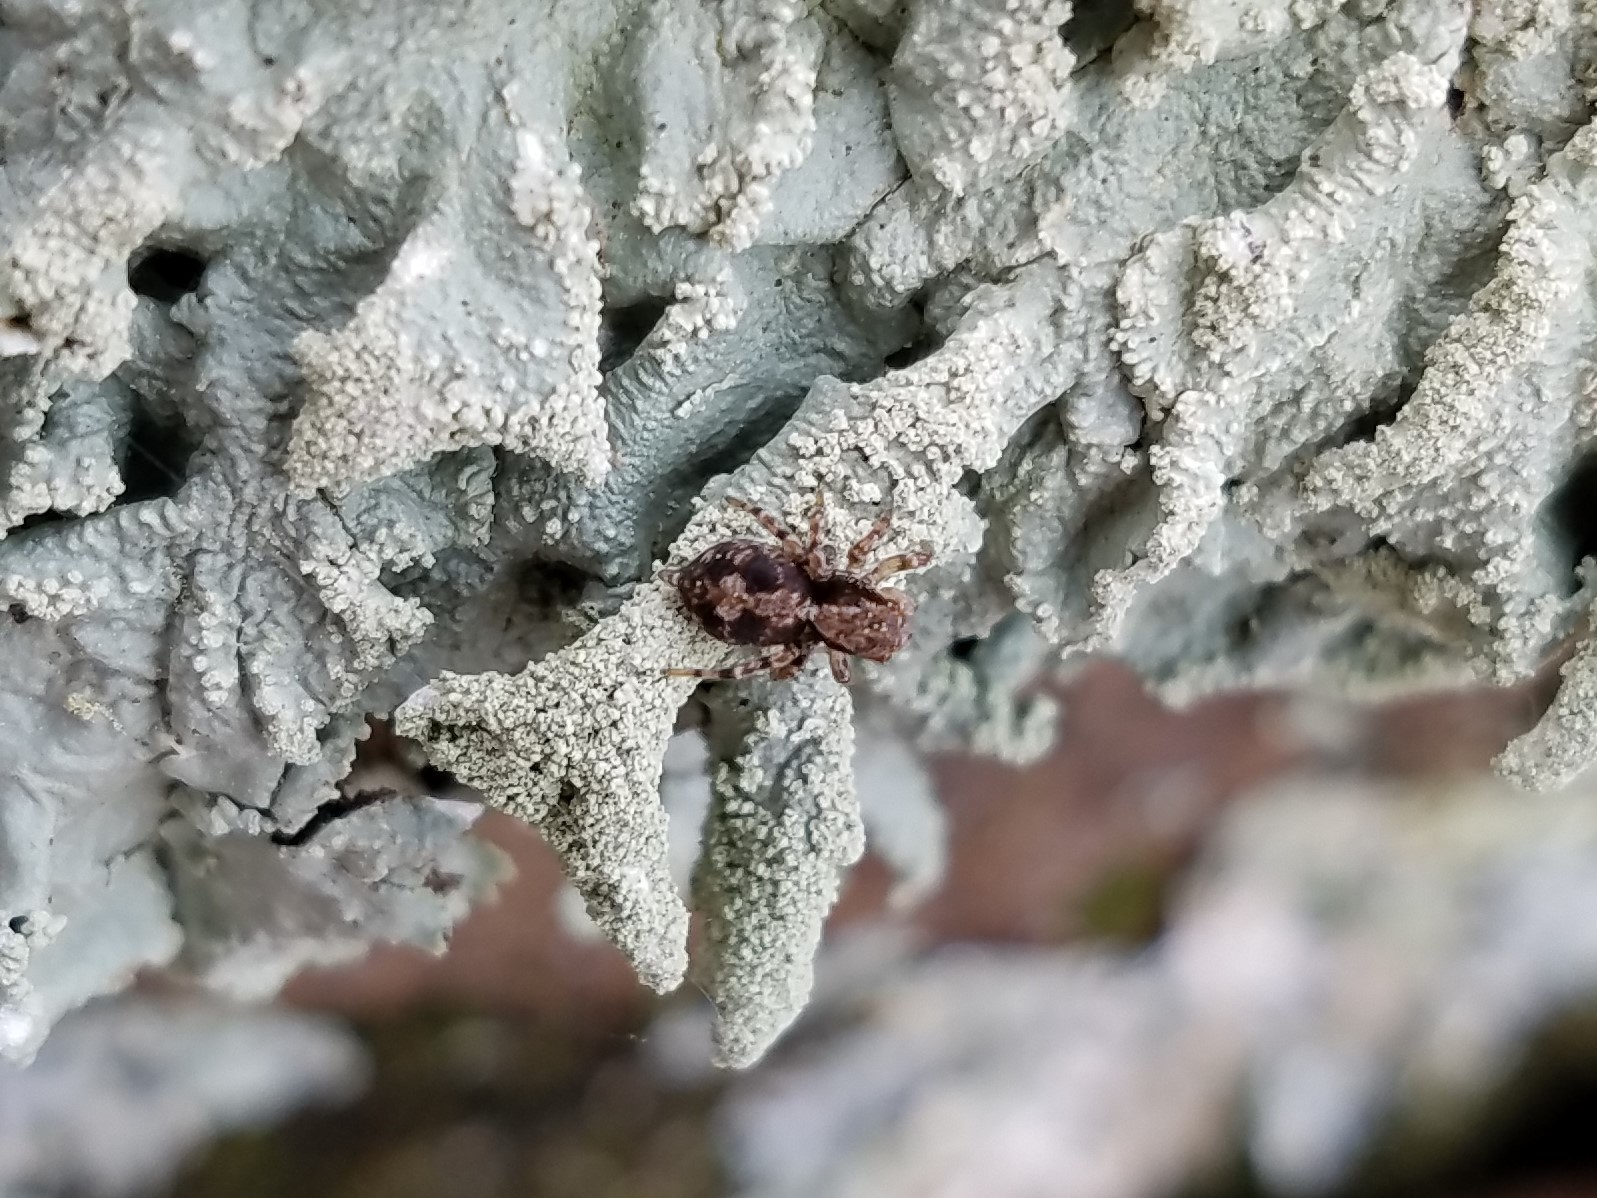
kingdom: Animalia
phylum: Arthropoda
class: Arachnida
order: Araneae
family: Salticidae
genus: Naphrys
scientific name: Naphrys pulex
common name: Flea jumping spider
